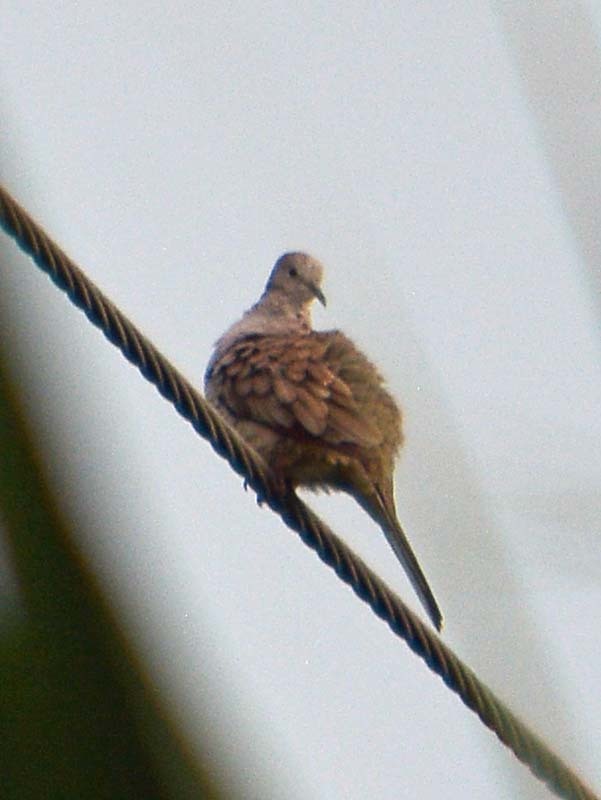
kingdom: Animalia
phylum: Chordata
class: Aves
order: Columbiformes
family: Columbidae
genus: Columbina
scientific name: Columbina inca
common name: Inca dove
